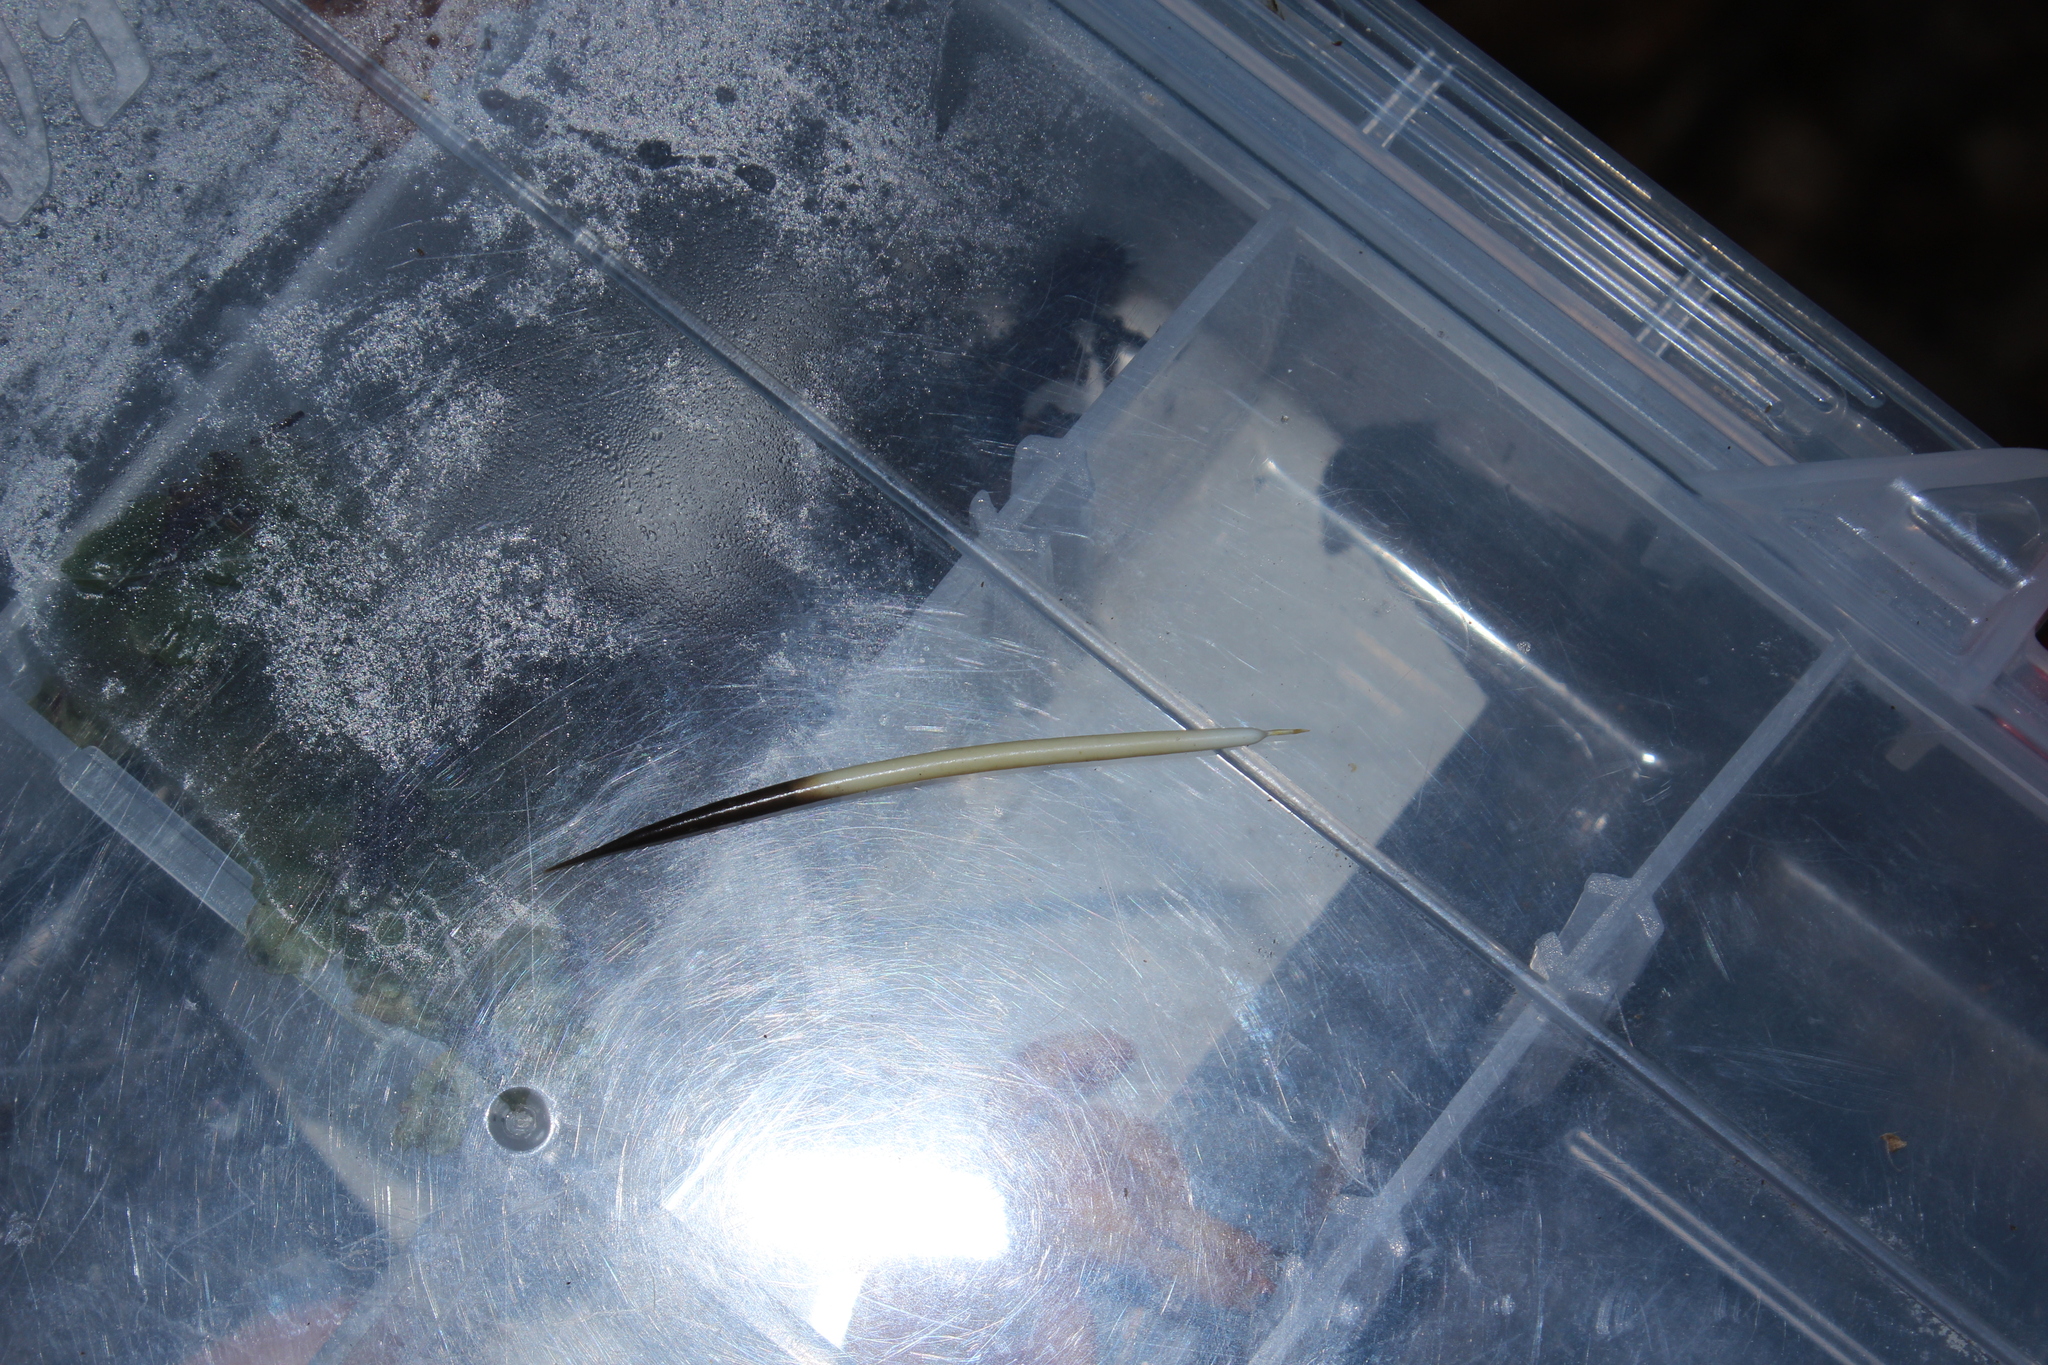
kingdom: Animalia
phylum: Chordata
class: Mammalia
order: Rodentia
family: Erethizontidae
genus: Erethizon
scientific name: Erethizon dorsatus
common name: North american porcupine
